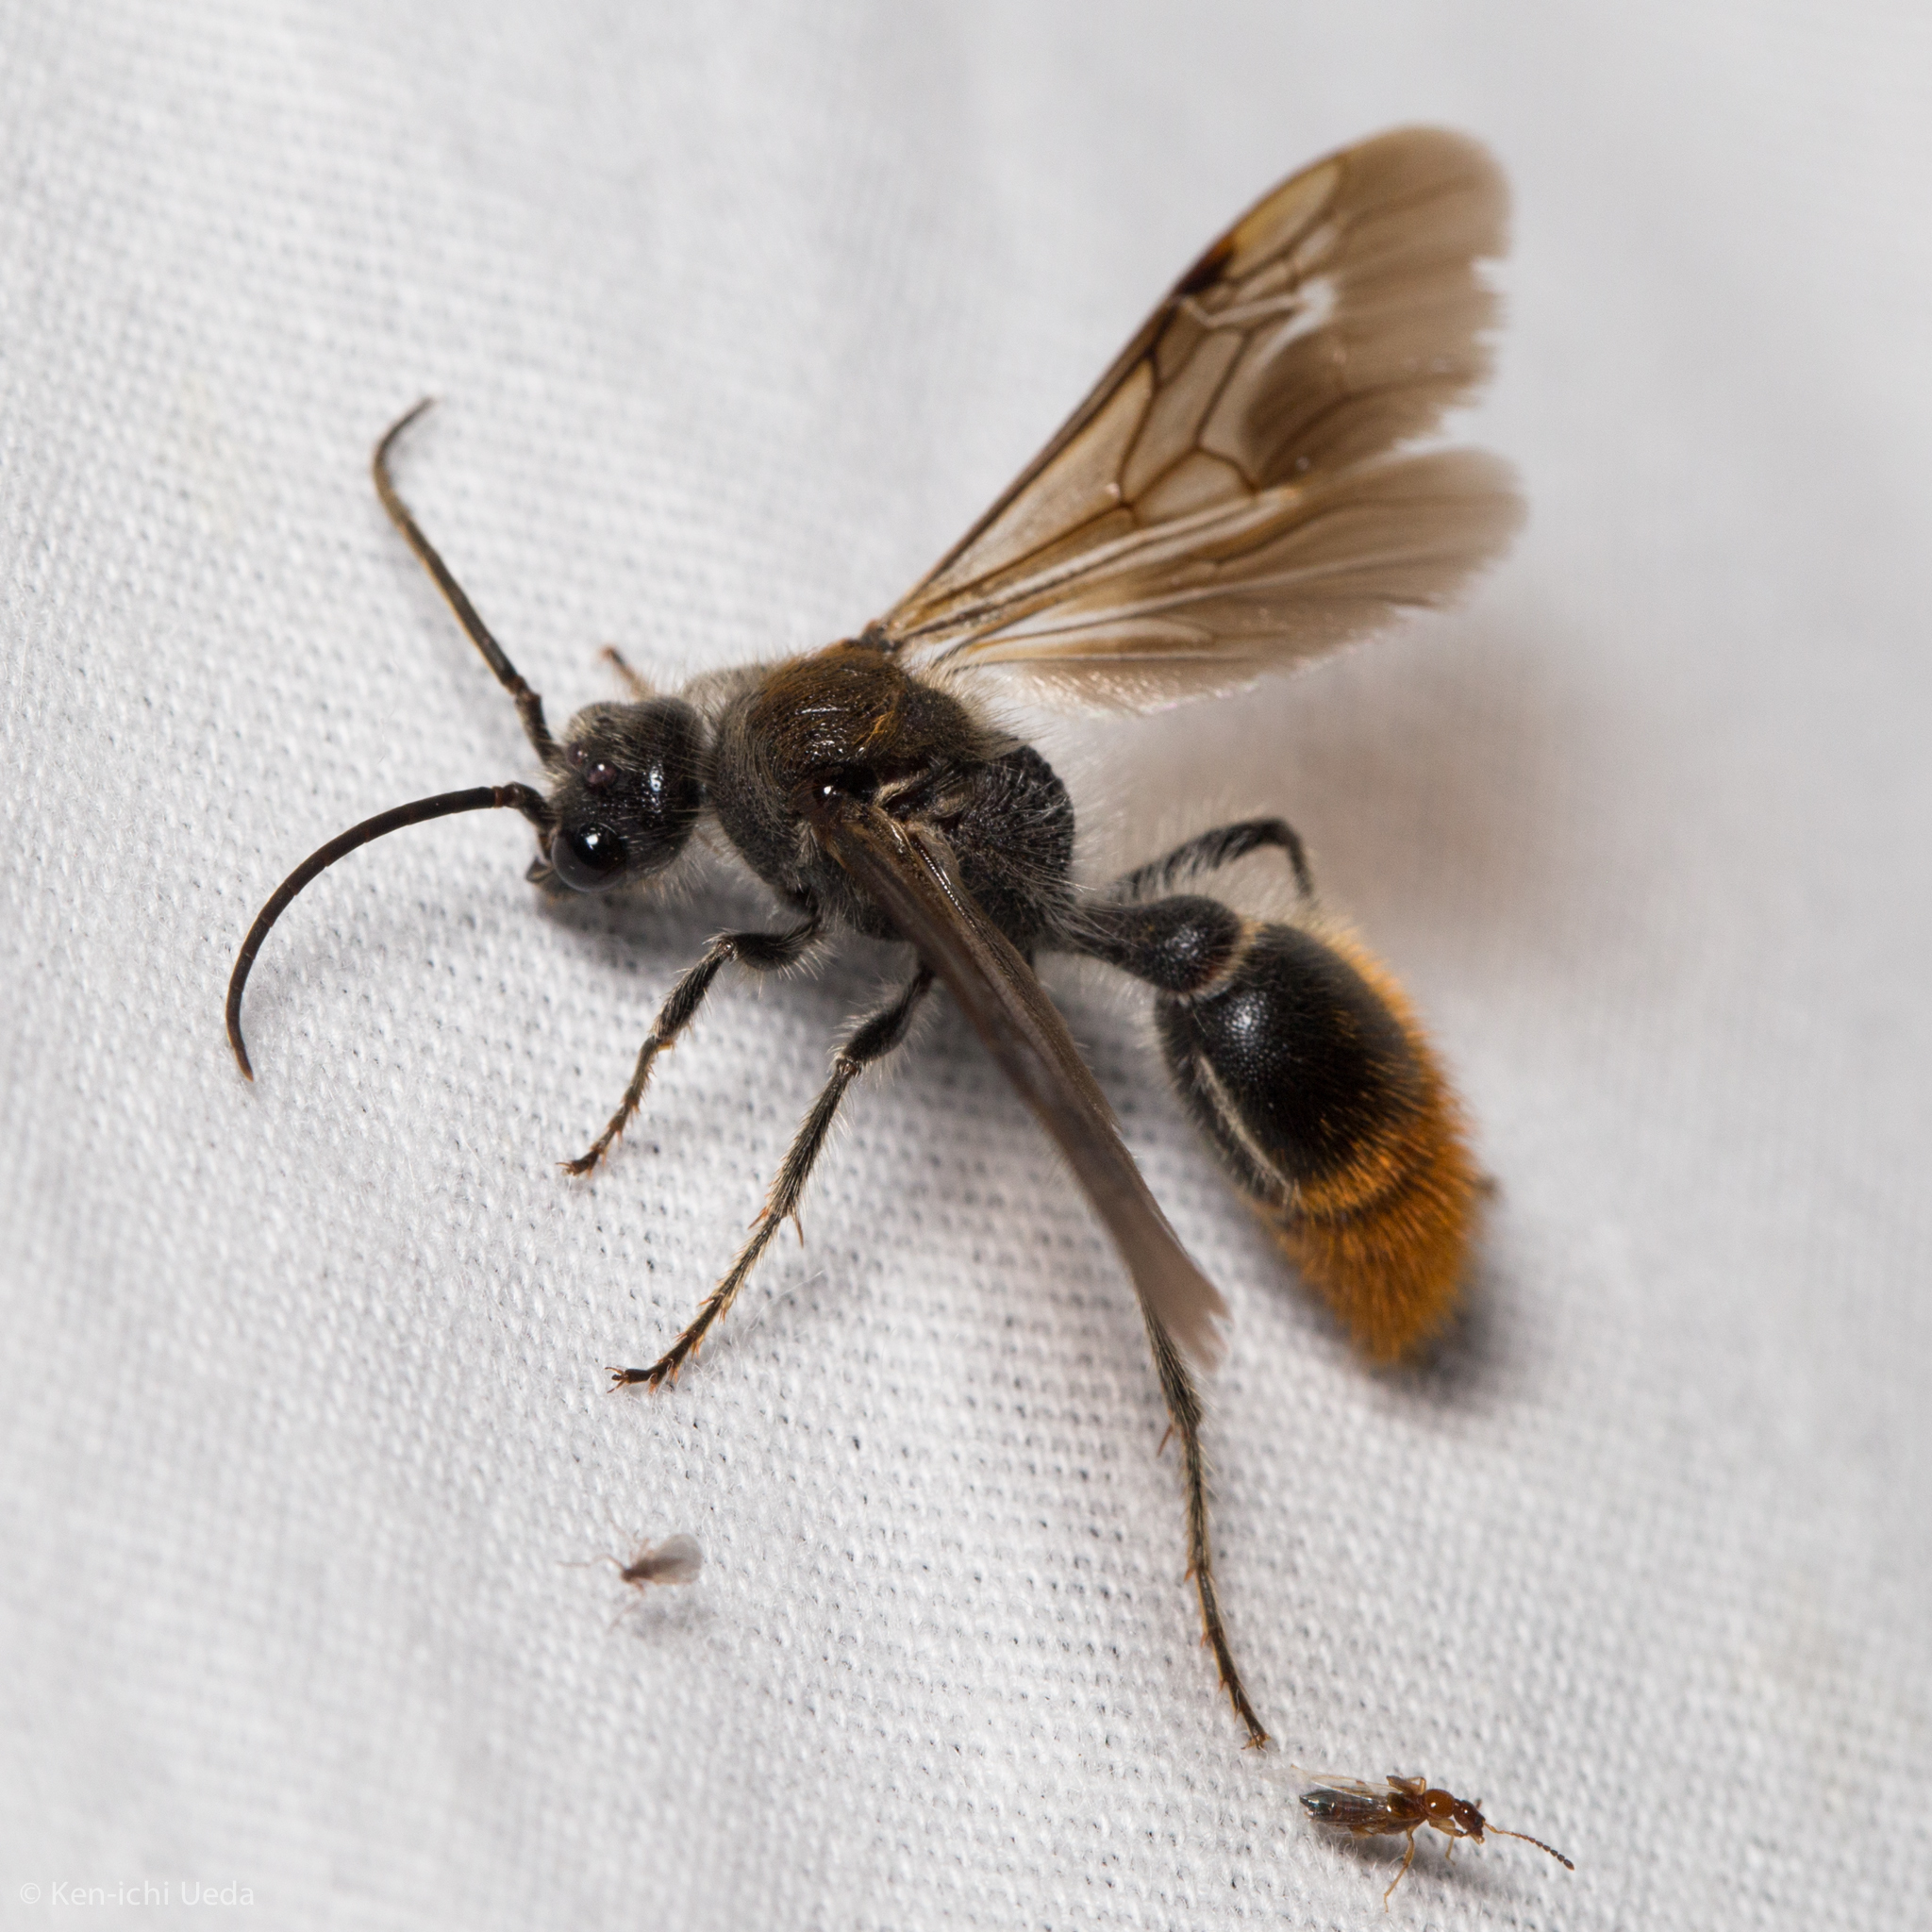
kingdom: Animalia
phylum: Arthropoda
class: Insecta
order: Hymenoptera
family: Mutillidae
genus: Sphaeropthalma
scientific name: Sphaeropthalma marpesia
